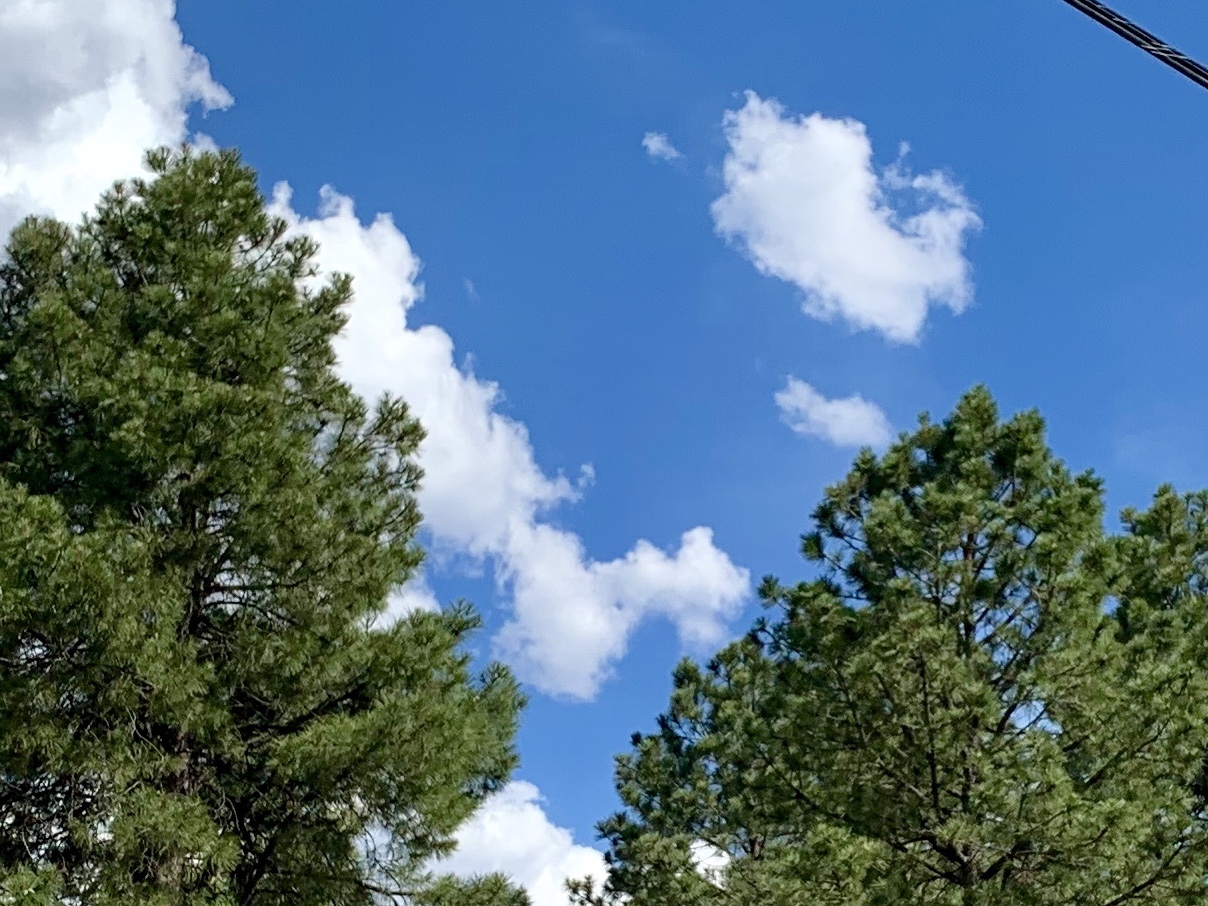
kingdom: Plantae
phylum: Tracheophyta
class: Pinopsida
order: Pinales
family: Pinaceae
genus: Pinus
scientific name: Pinus ponderosa
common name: Western yellow-pine
